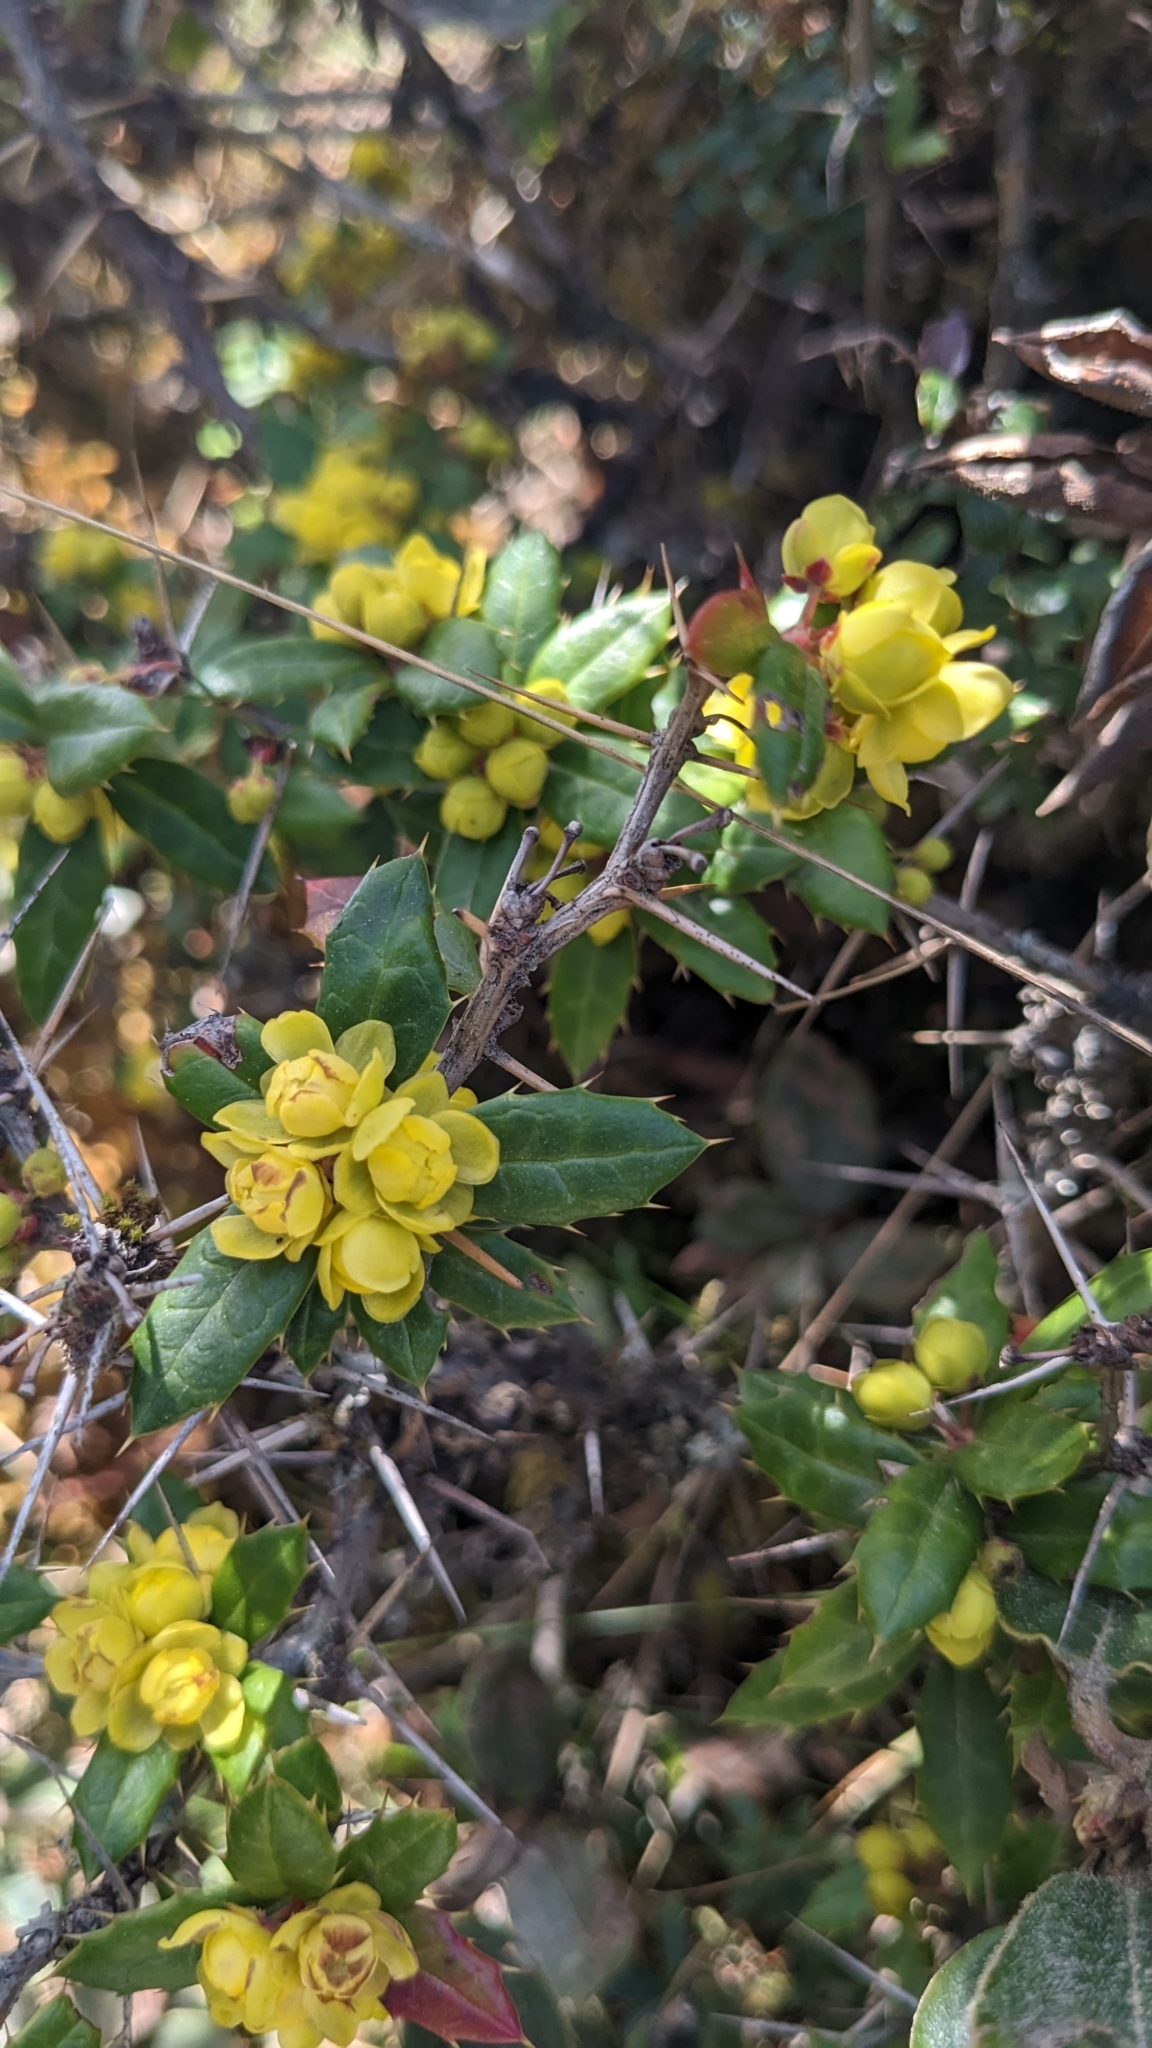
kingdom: Plantae
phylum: Tracheophyta
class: Magnoliopsida
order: Ranunculales
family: Berberidaceae
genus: Berberis
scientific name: Berberis nantoensis
